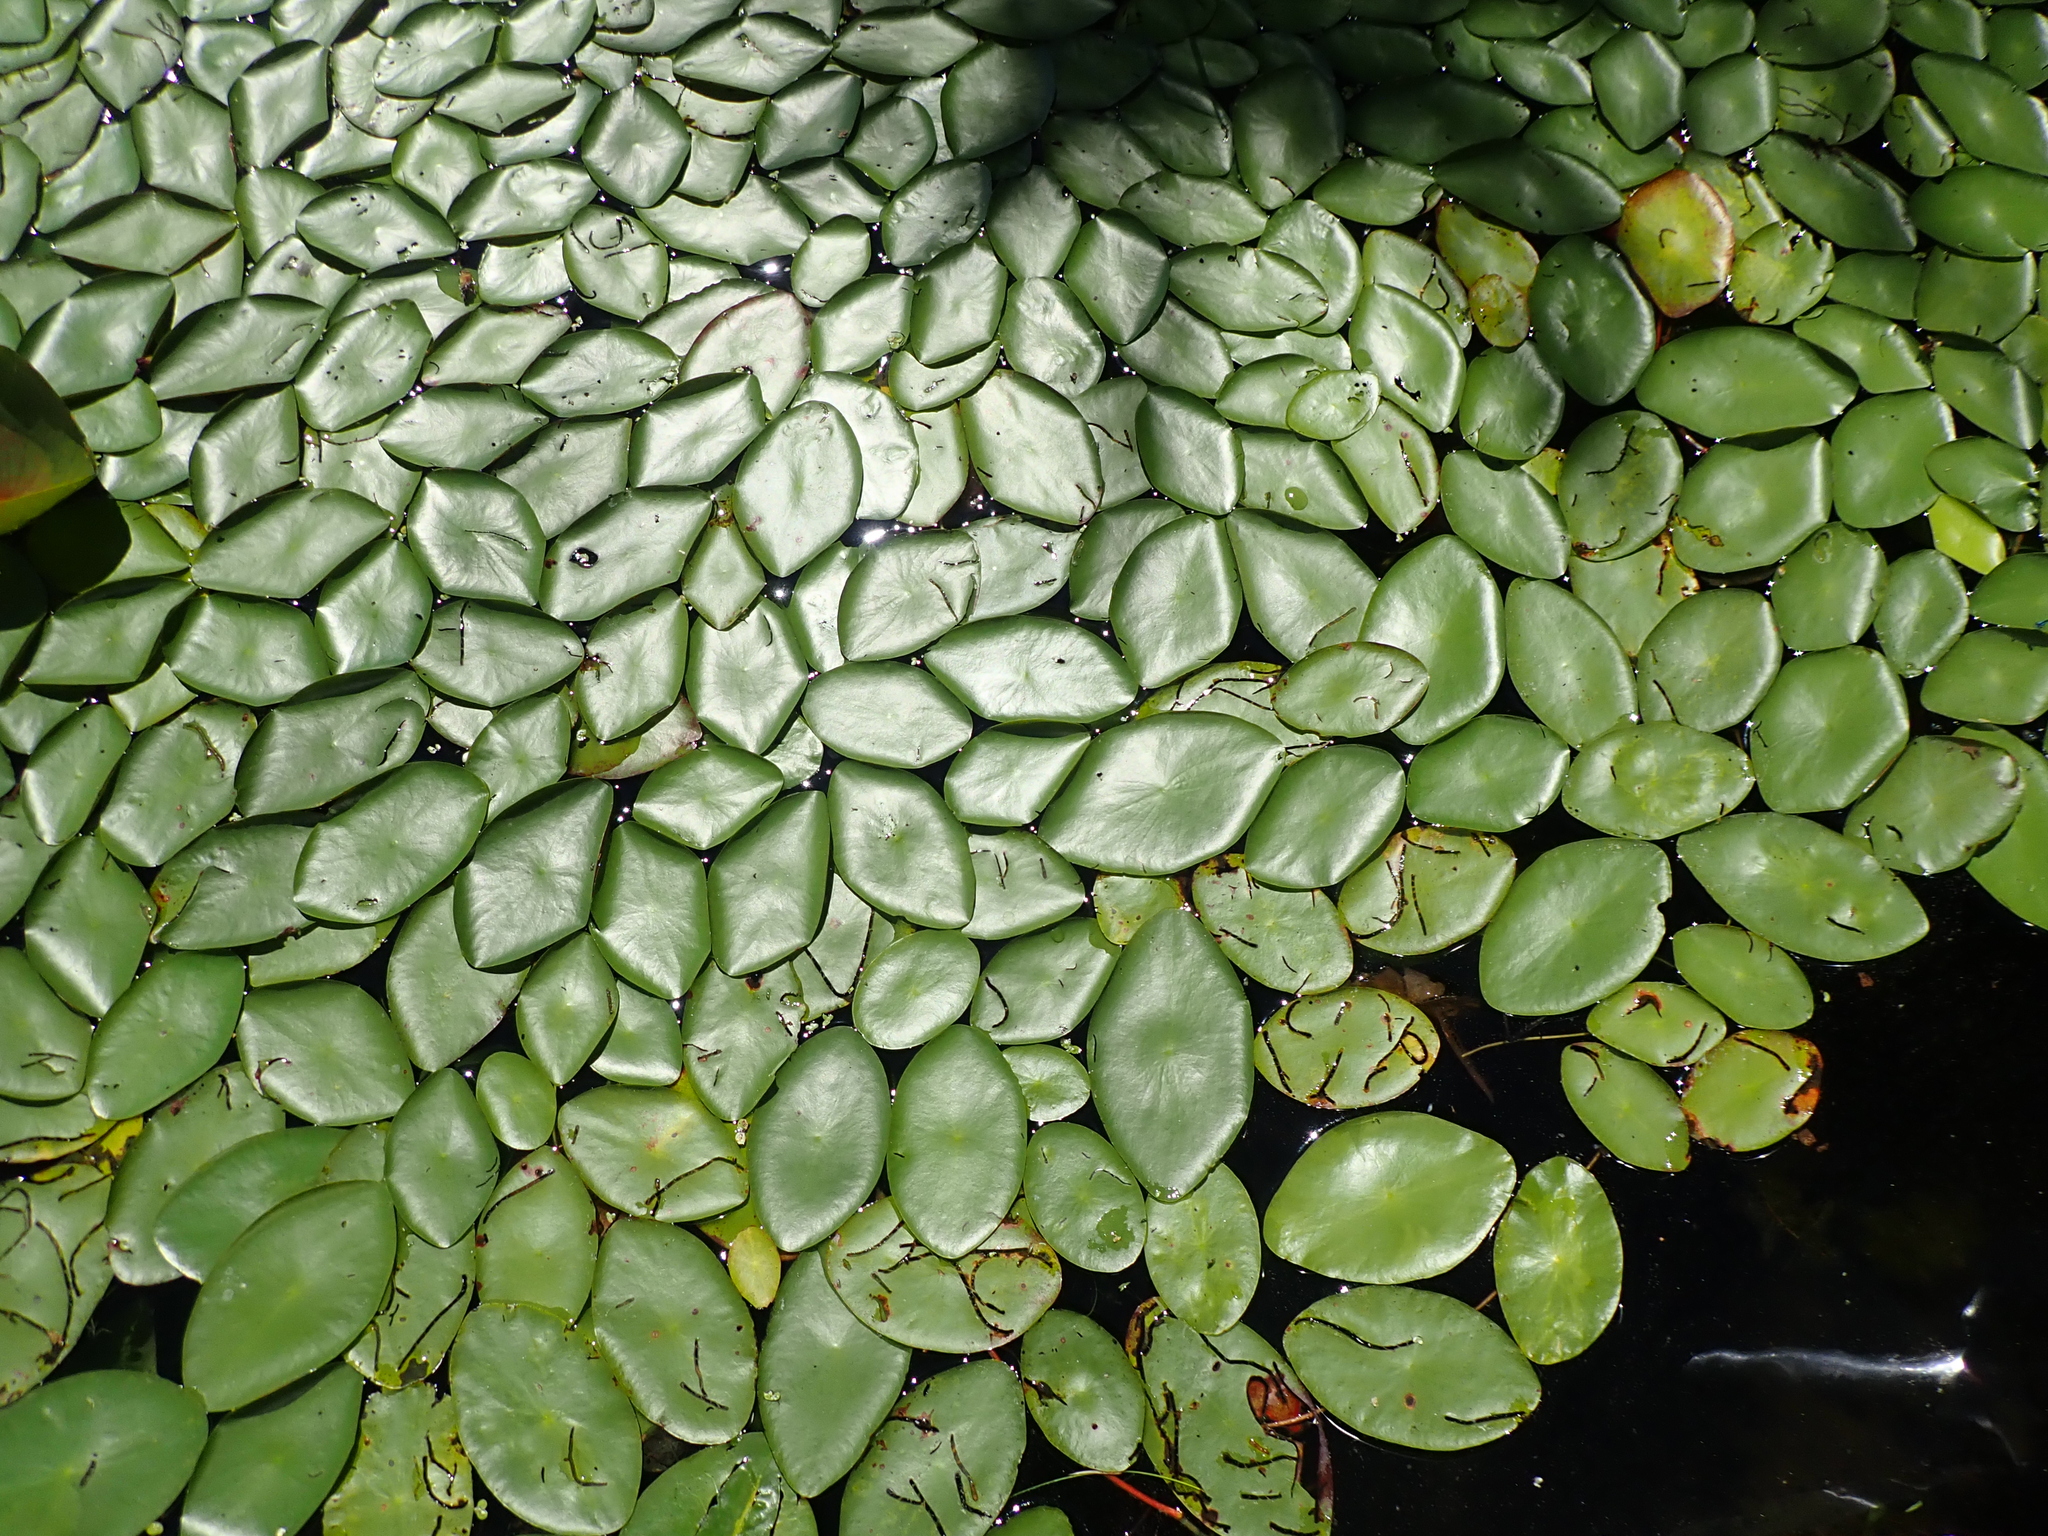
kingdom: Plantae
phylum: Tracheophyta
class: Magnoliopsida
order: Nymphaeales
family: Cabombaceae
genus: Brasenia
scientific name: Brasenia schreberi
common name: Water-shield
